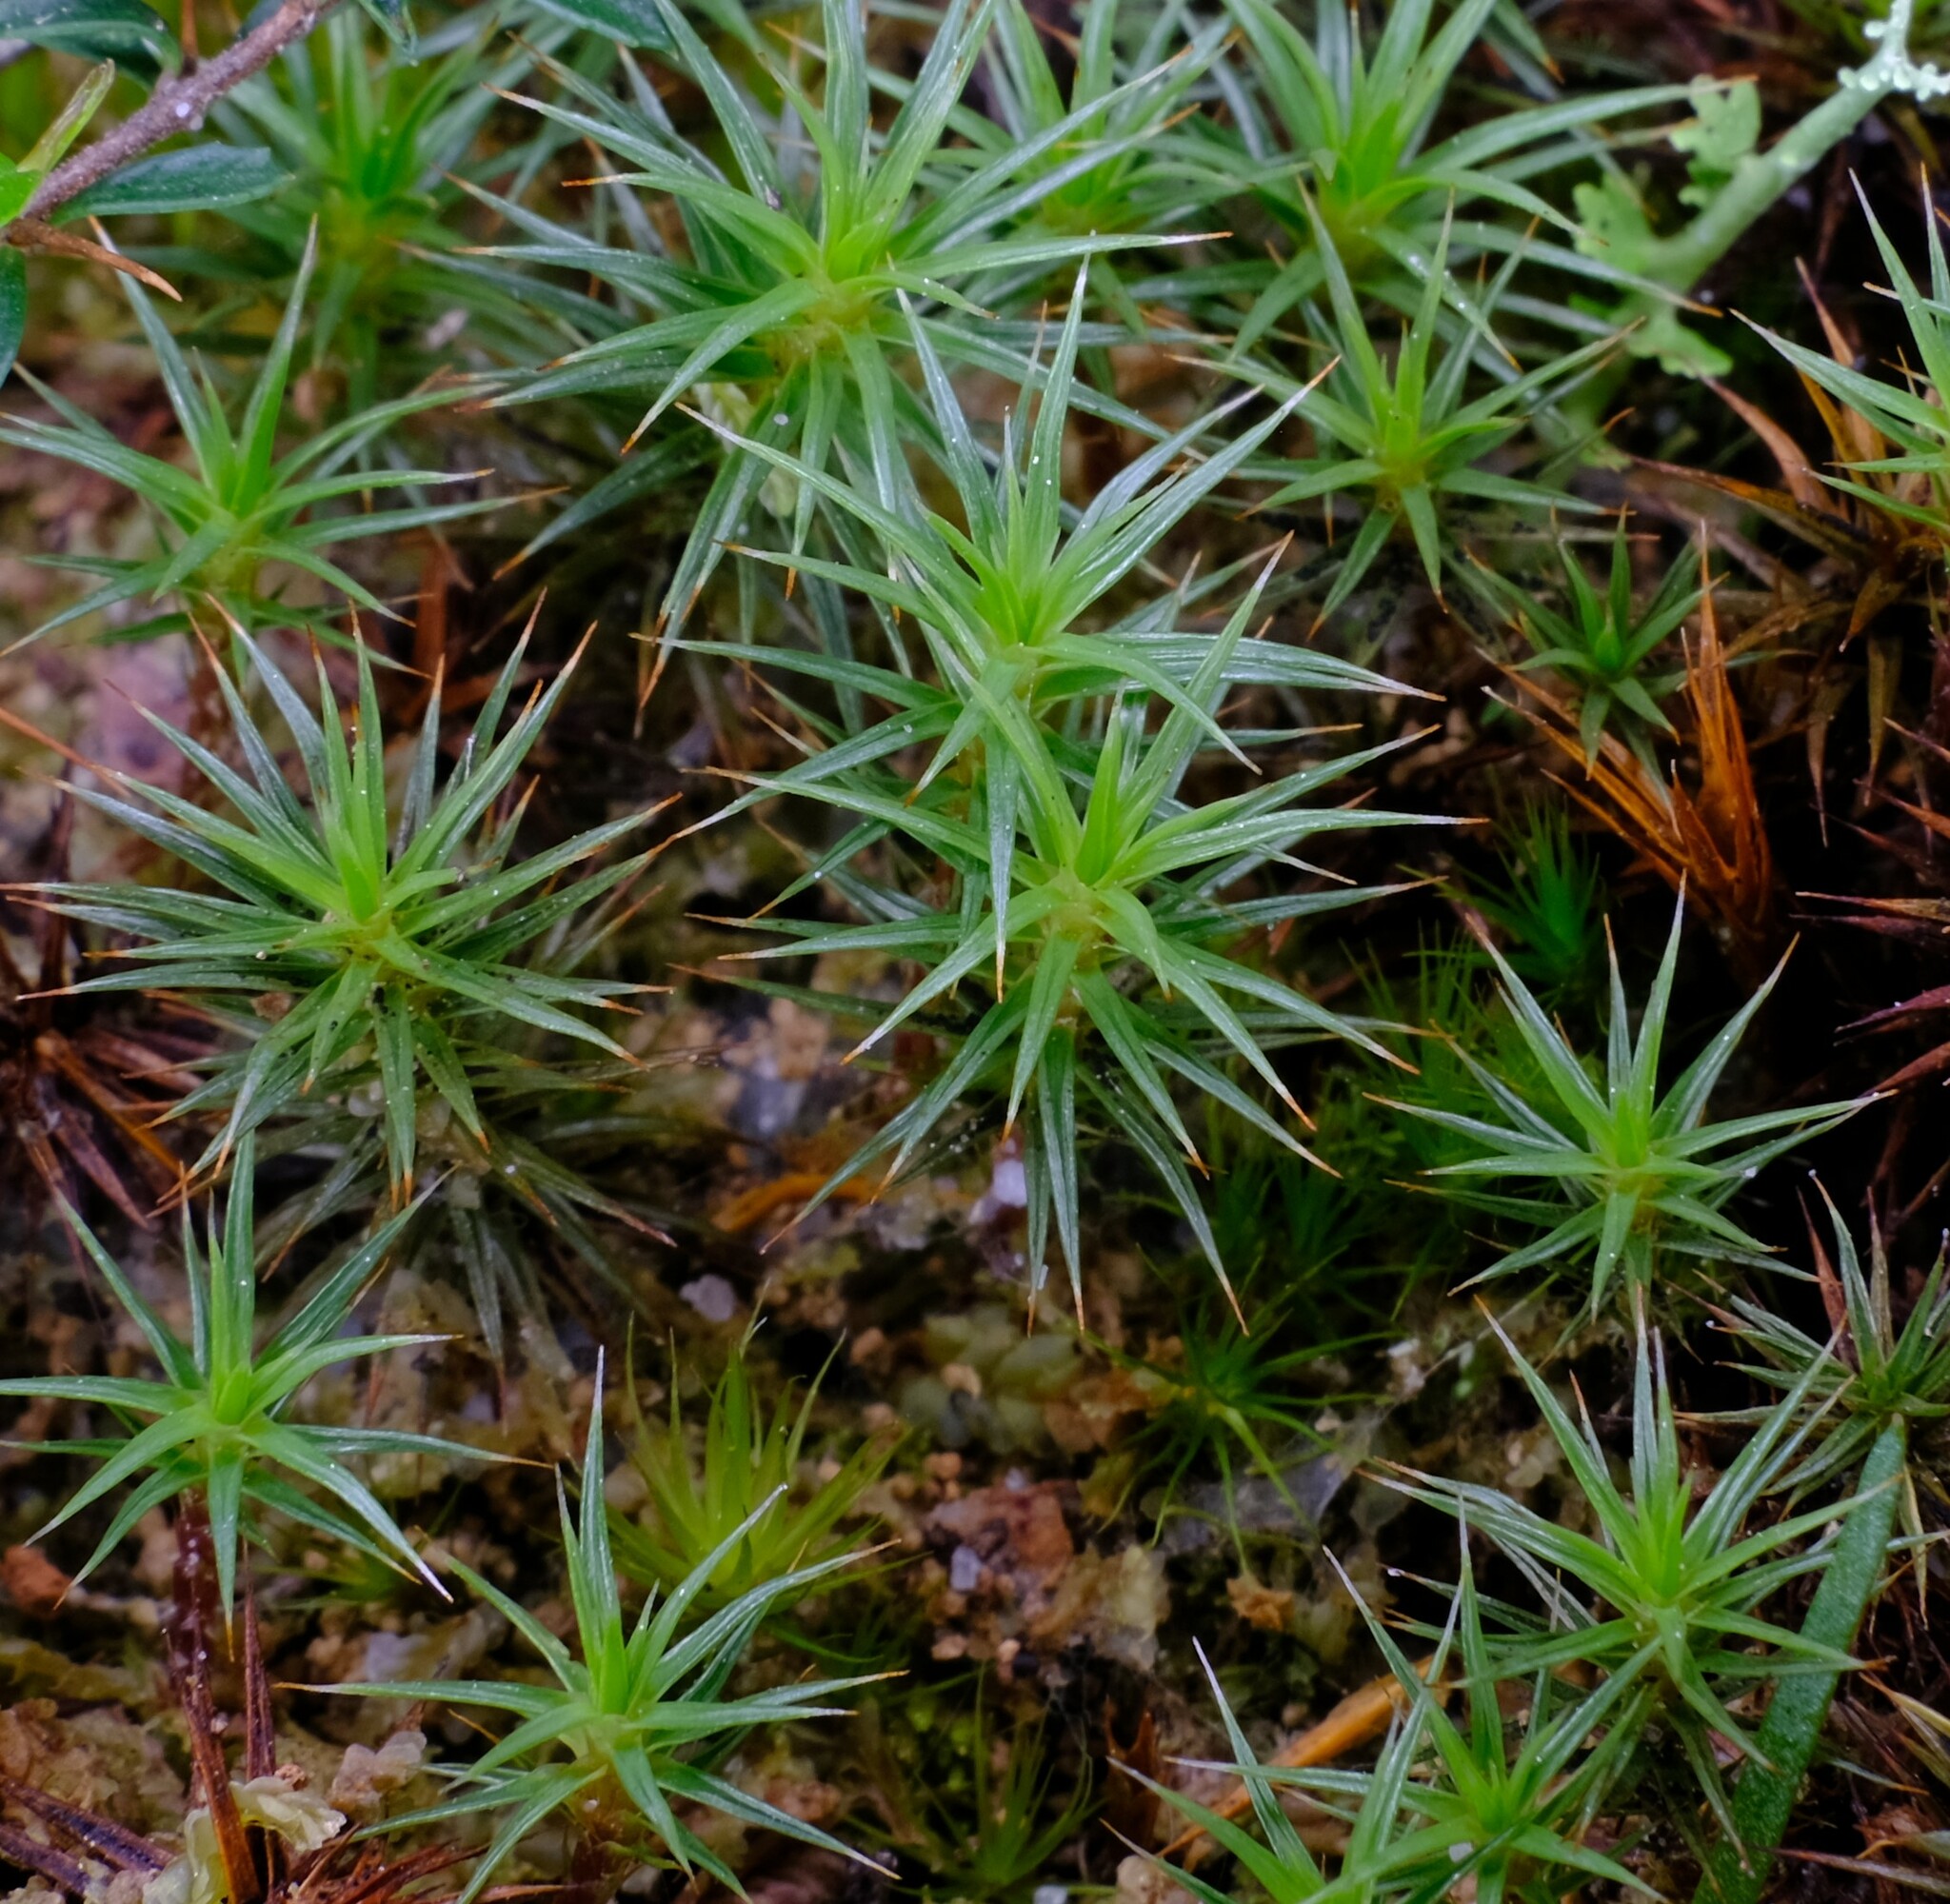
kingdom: Plantae
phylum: Bryophyta
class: Polytrichopsida
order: Polytrichales
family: Polytrichaceae
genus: Polytrichum
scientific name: Polytrichum juniperinum
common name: Juniper haircap moss
